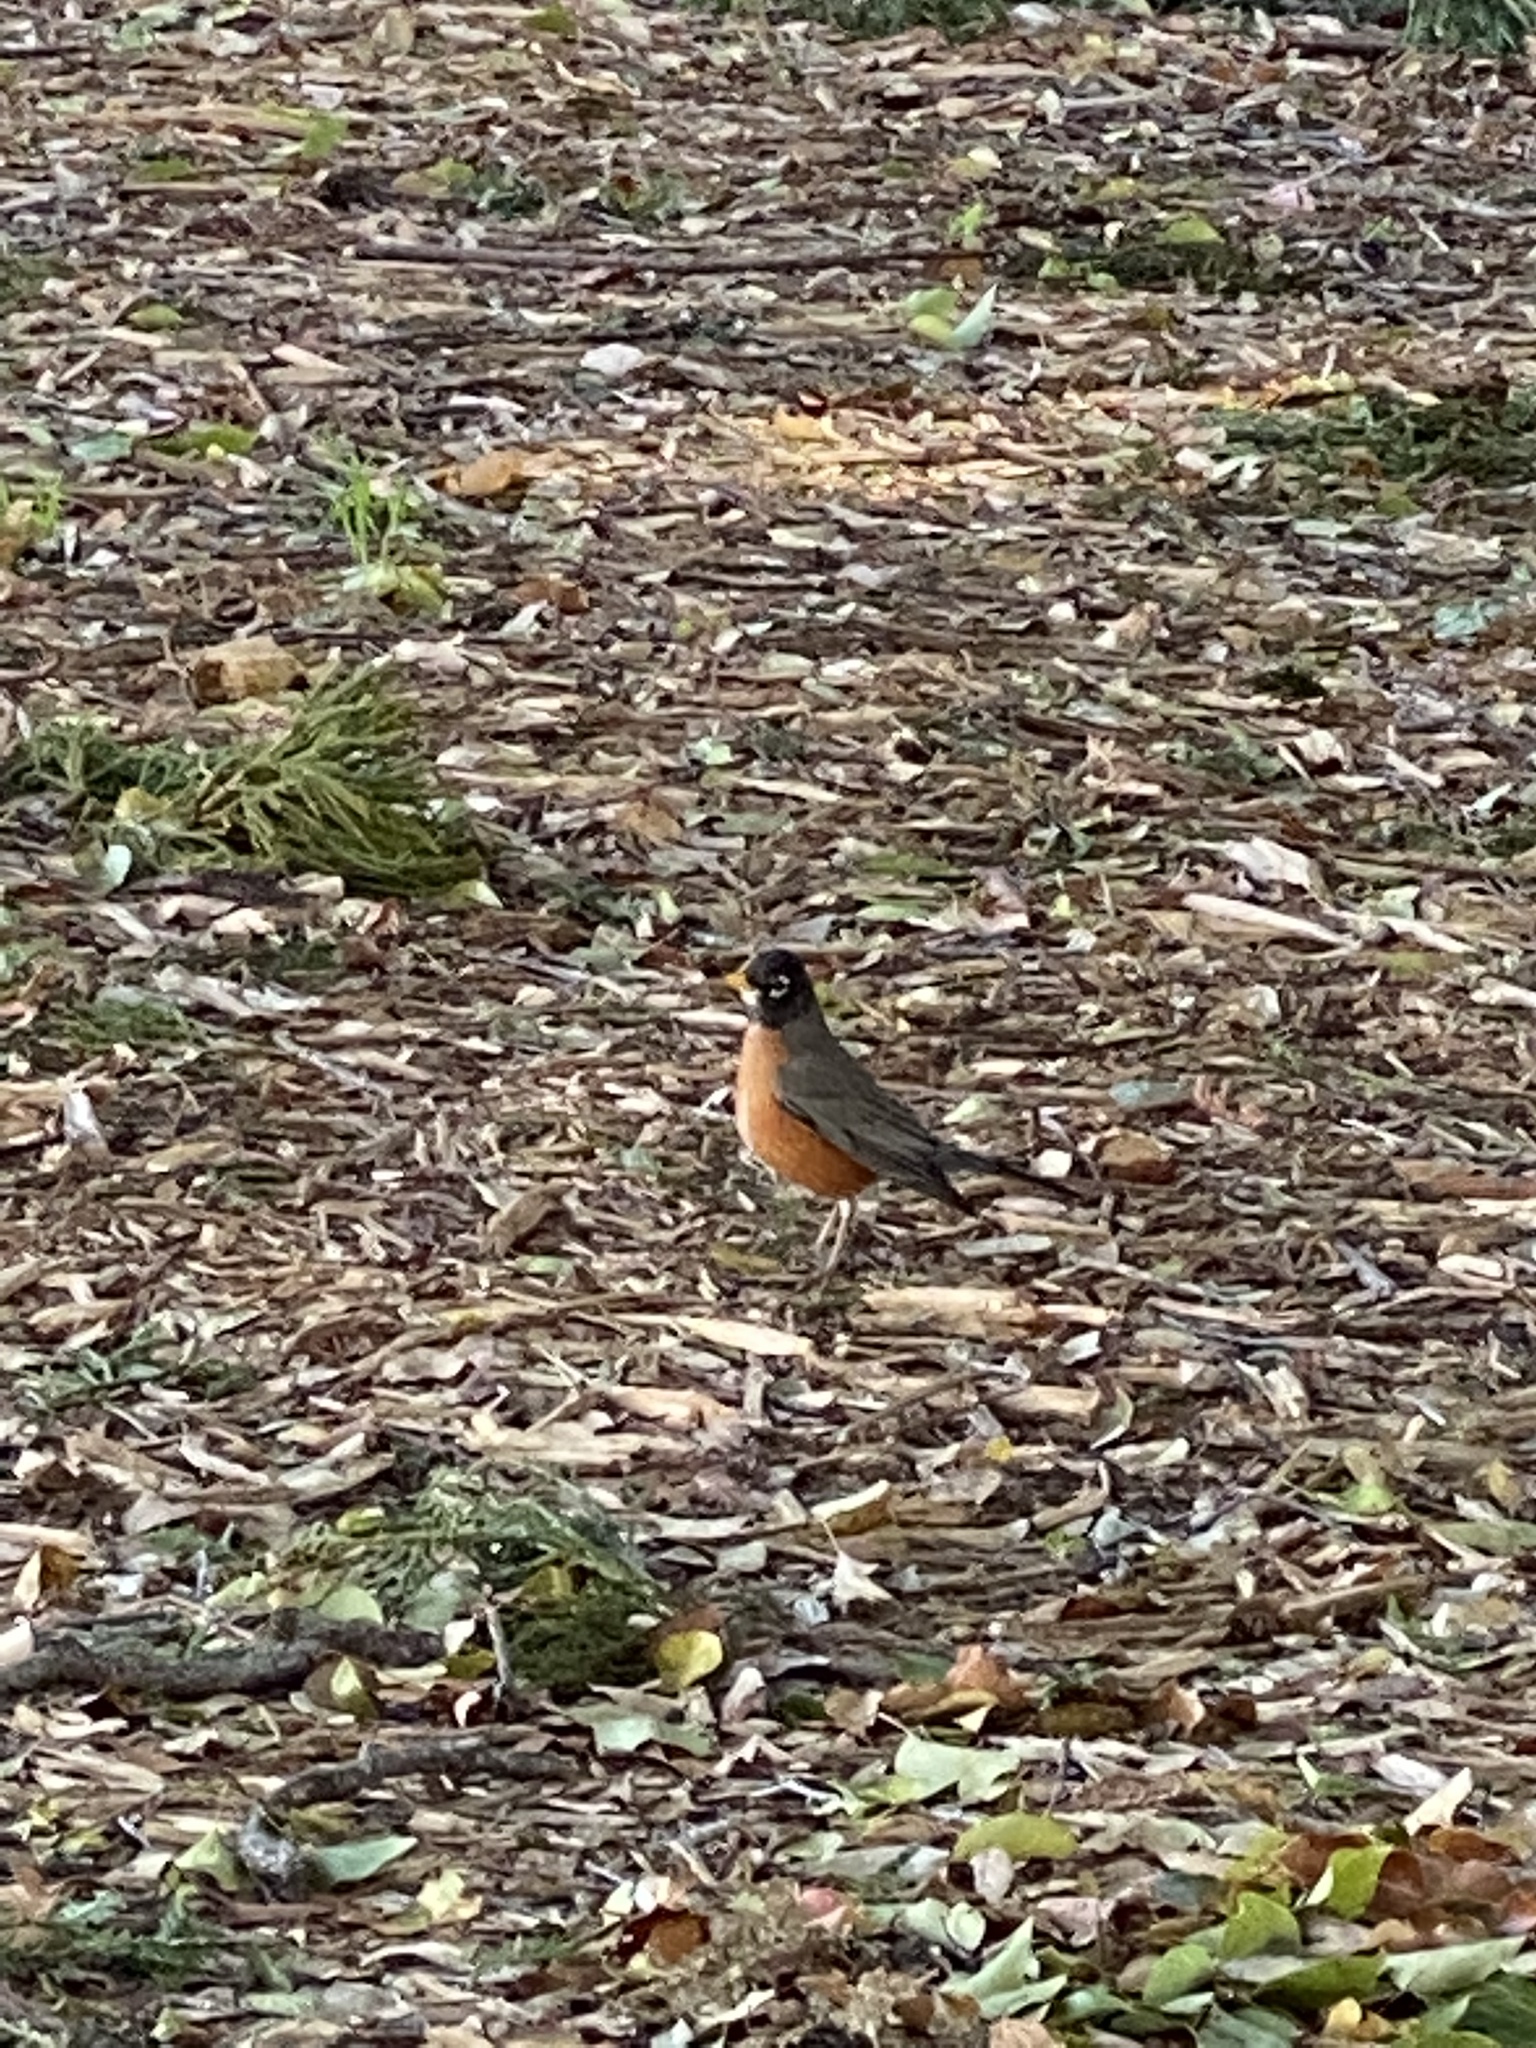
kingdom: Animalia
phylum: Chordata
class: Aves
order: Passeriformes
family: Turdidae
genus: Turdus
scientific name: Turdus migratorius
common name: American robin
